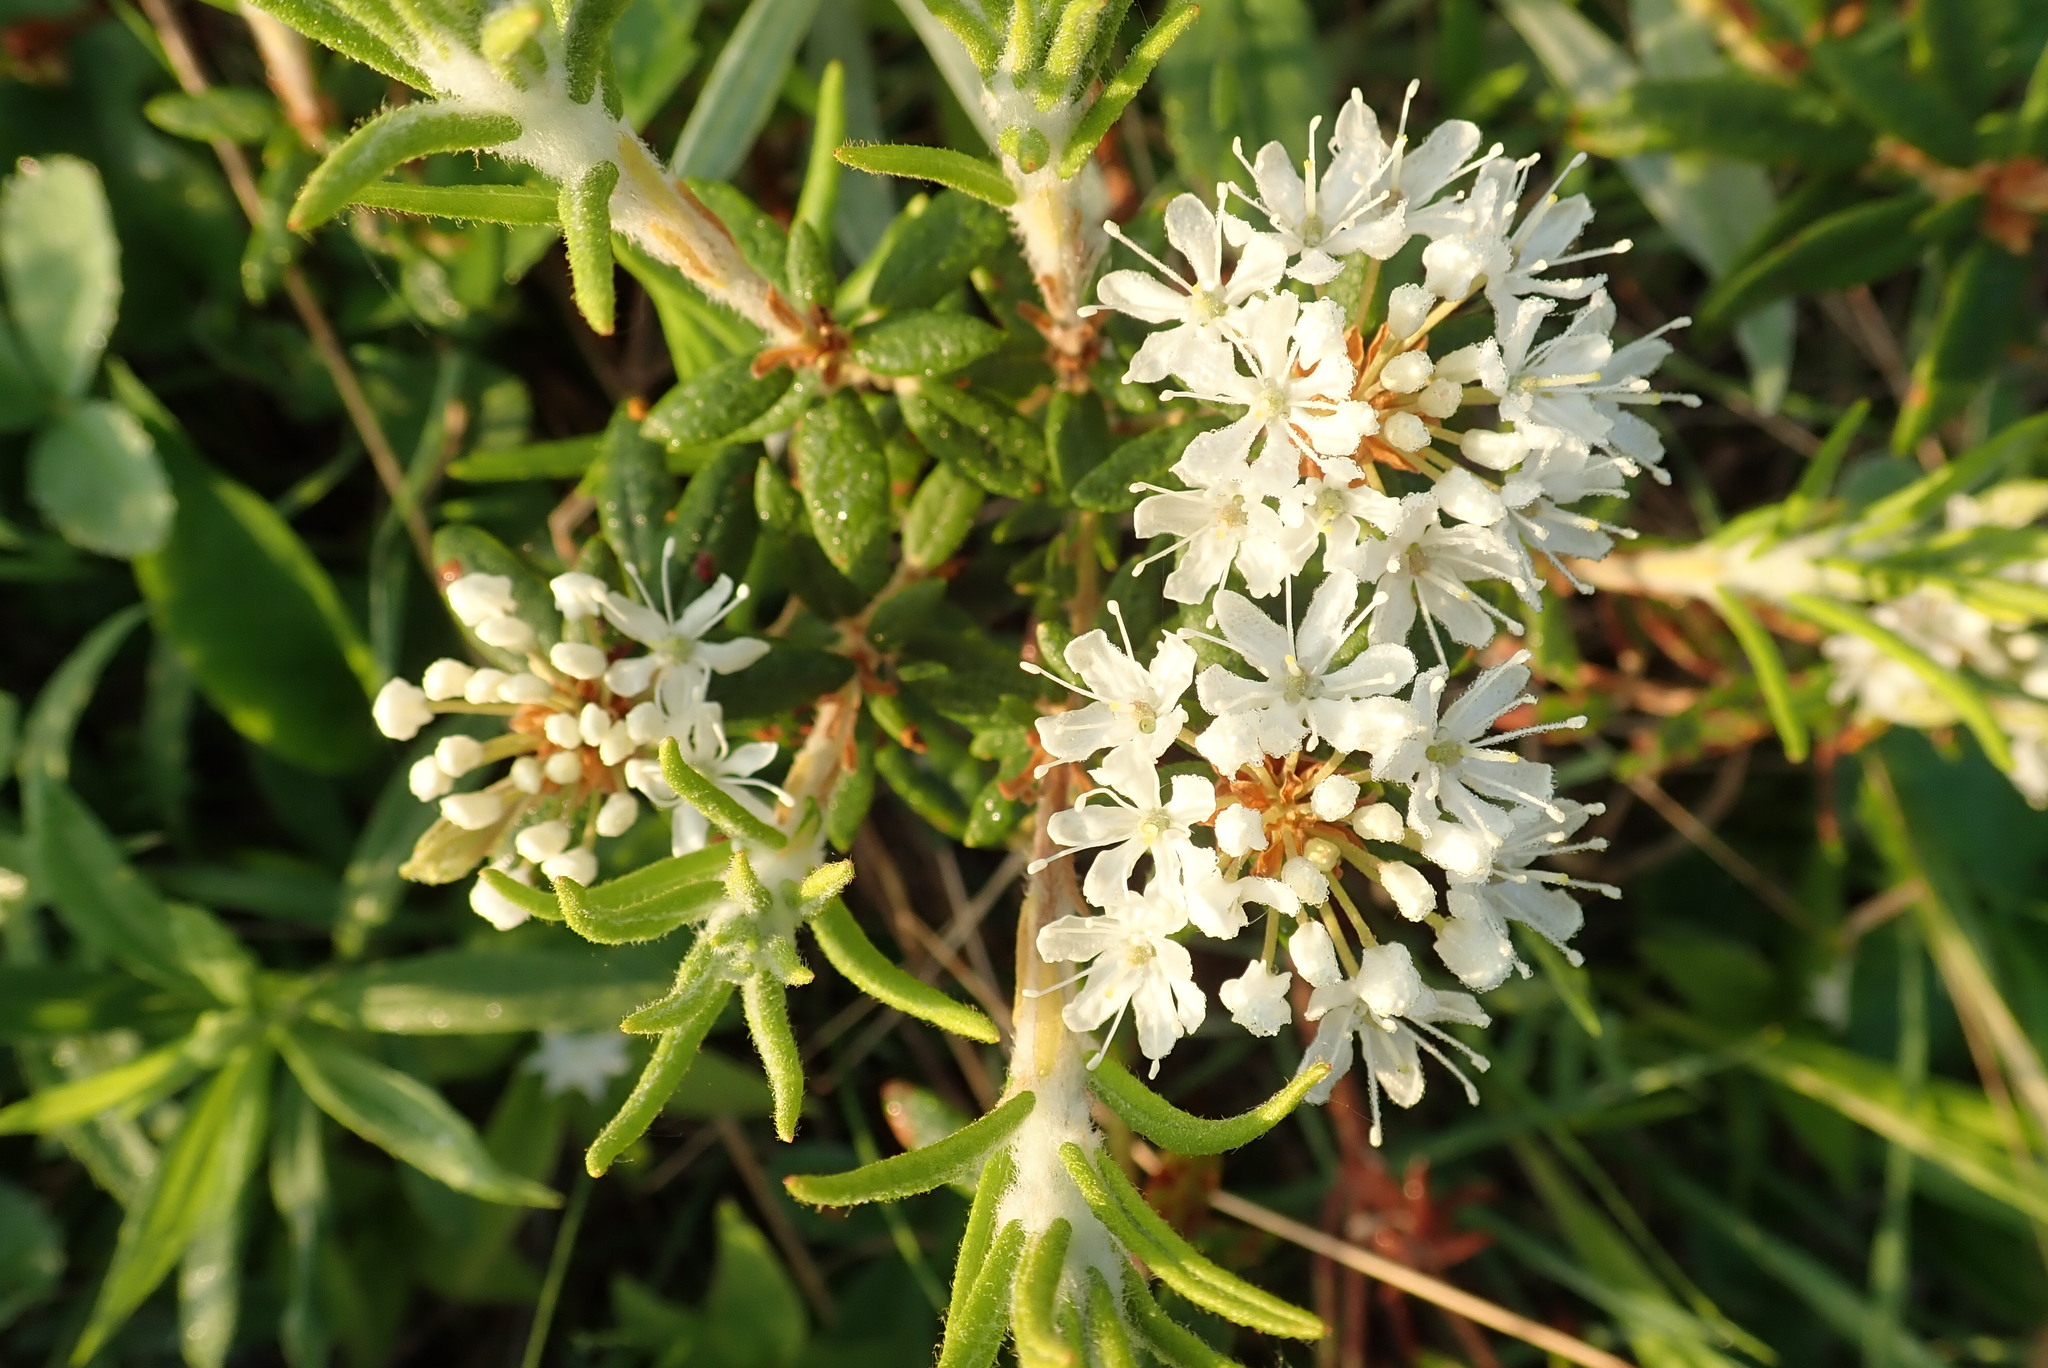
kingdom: Plantae
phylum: Tracheophyta
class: Magnoliopsida
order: Ericales
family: Ericaceae
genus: Rhododendron
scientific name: Rhododendron groenlandicum
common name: Bog labrador tea
